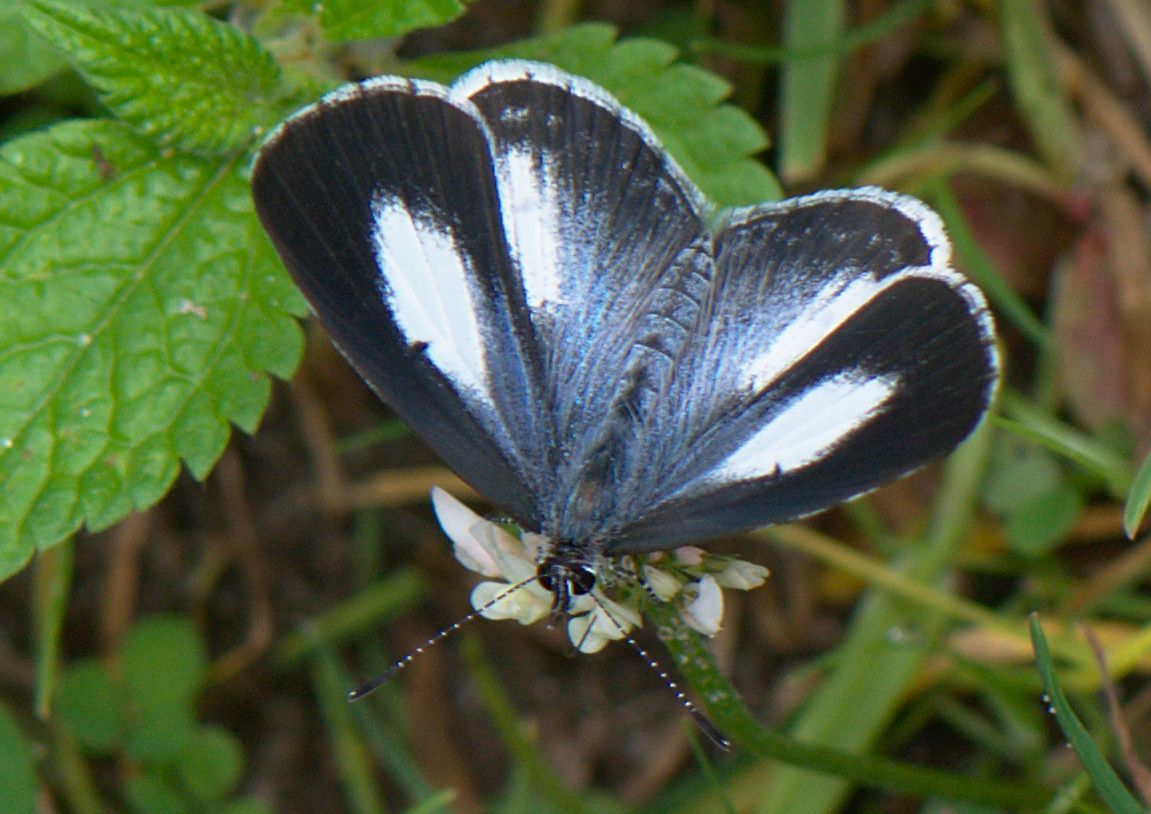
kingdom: Animalia
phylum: Arthropoda
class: Insecta
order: Lepidoptera
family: Lycaenidae
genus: Lycaenopsis
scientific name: Lycaenopsis marginata
